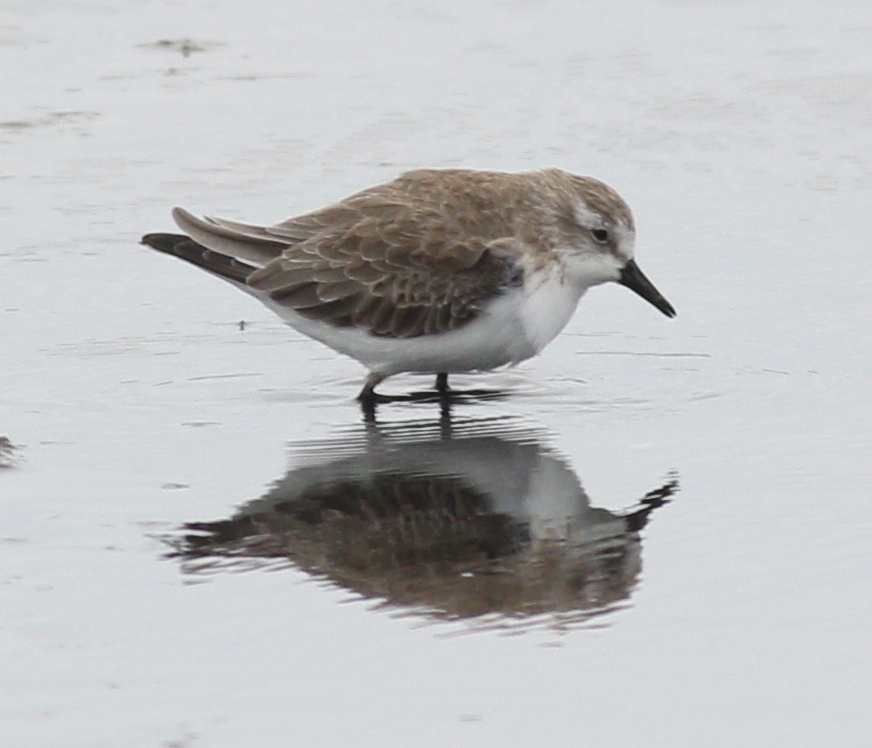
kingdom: Animalia
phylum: Chordata
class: Aves
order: Charadriiformes
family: Scolopacidae
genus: Calidris
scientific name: Calidris pusilla
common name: Semipalmated sandpiper
